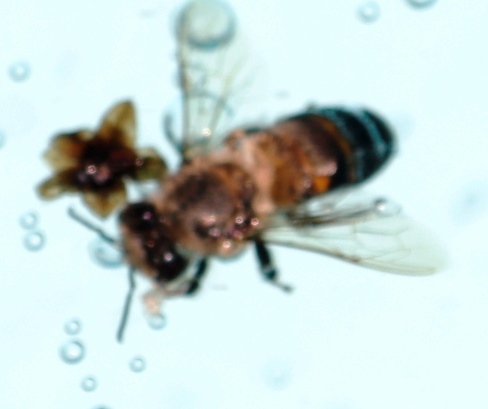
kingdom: Animalia
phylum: Arthropoda
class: Insecta
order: Hymenoptera
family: Apidae
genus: Apis
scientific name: Apis mellifera
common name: Honey bee
